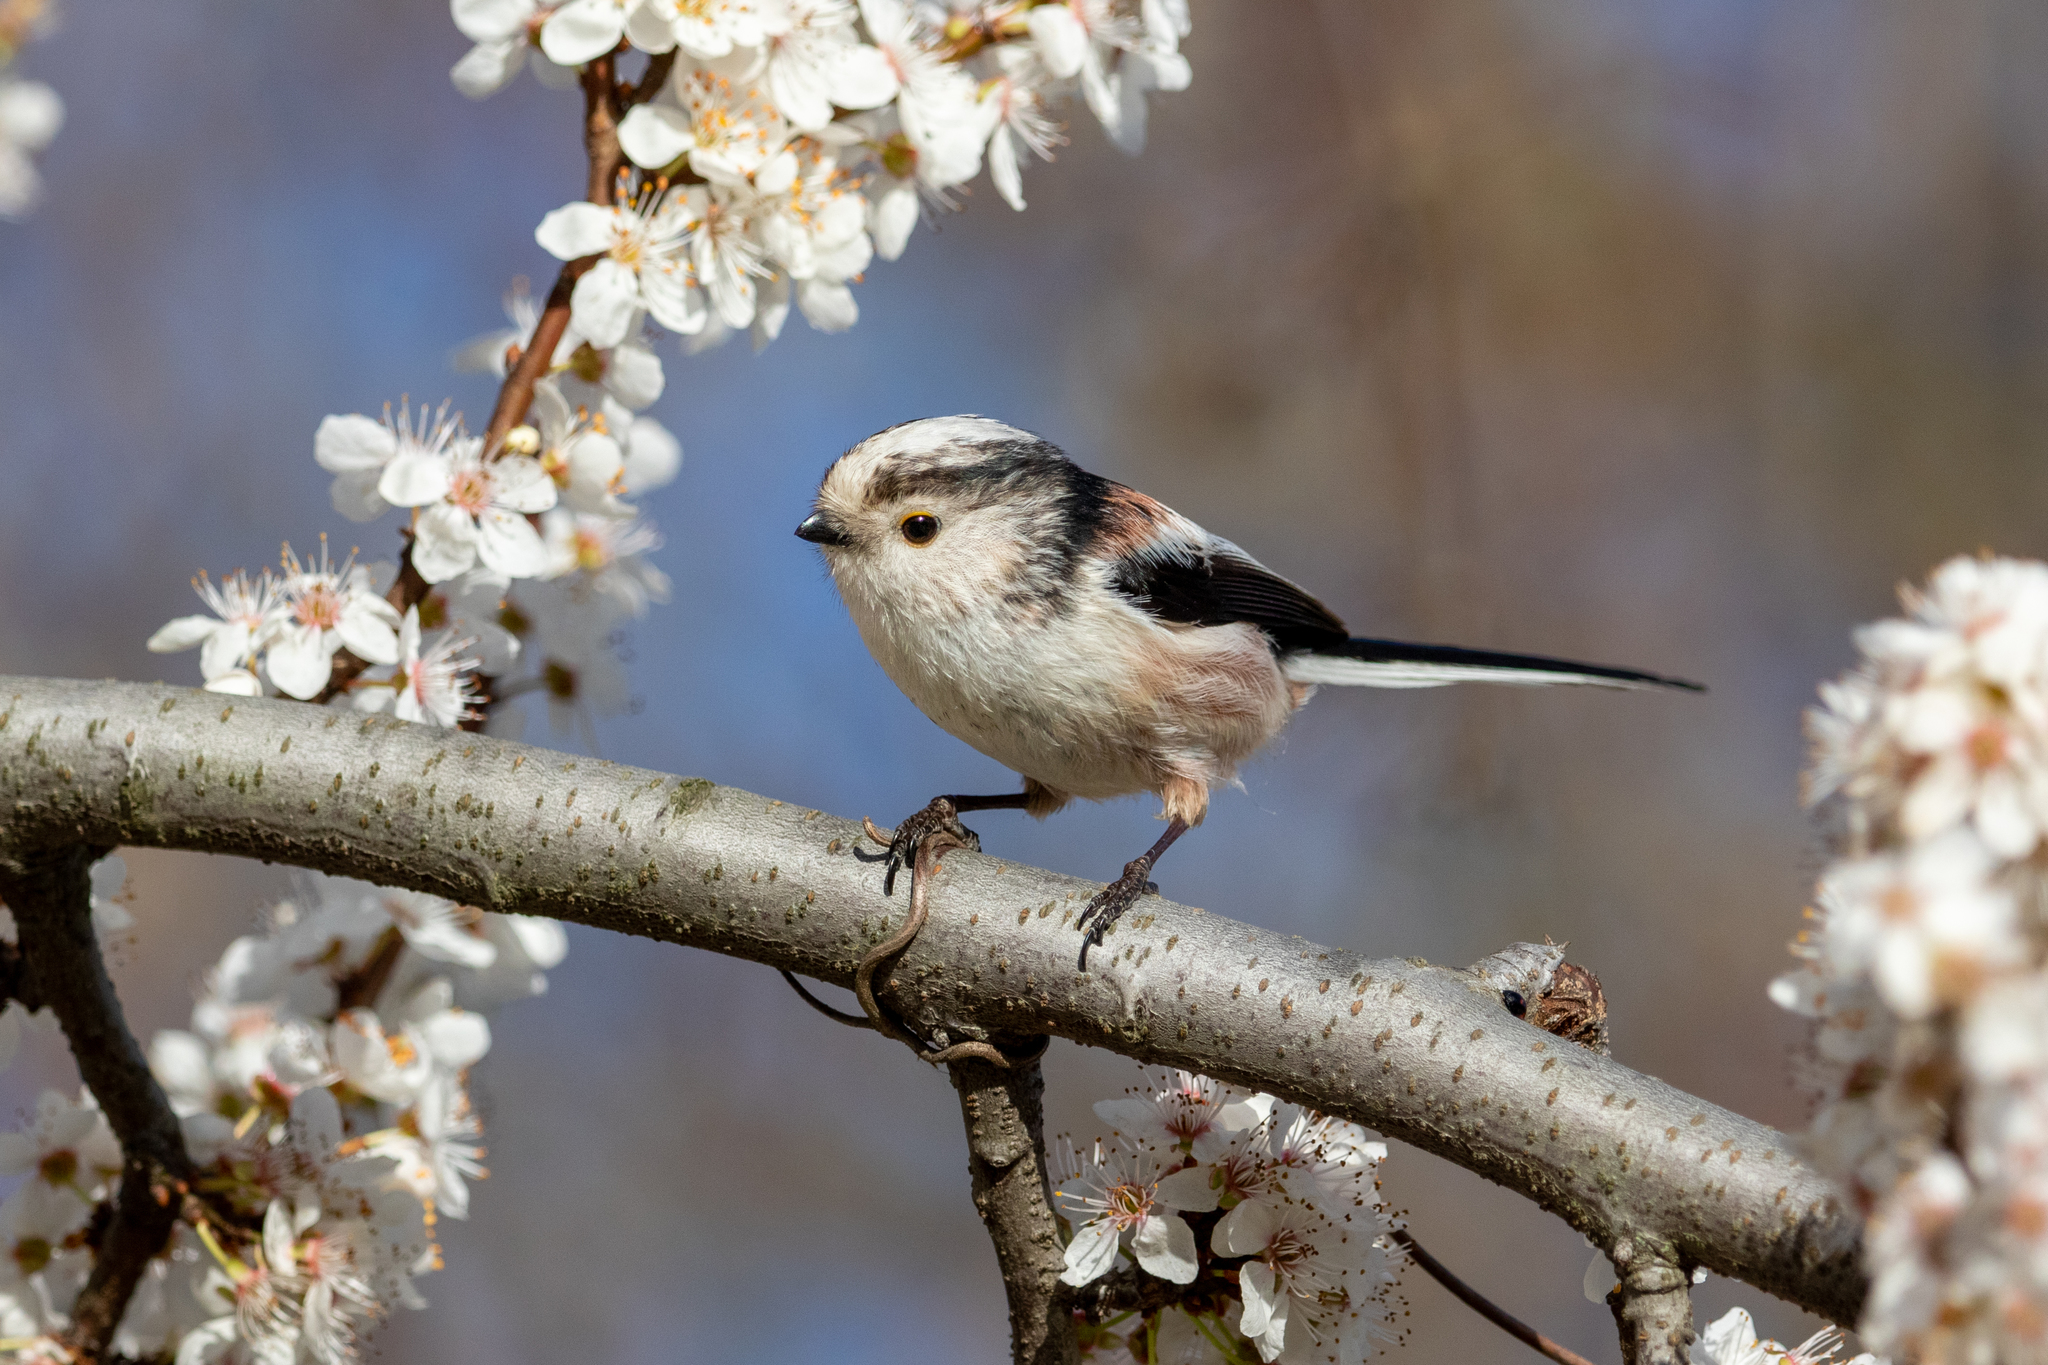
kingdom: Animalia
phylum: Chordata
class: Aves
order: Passeriformes
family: Aegithalidae
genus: Aegithalos
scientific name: Aegithalos caudatus
